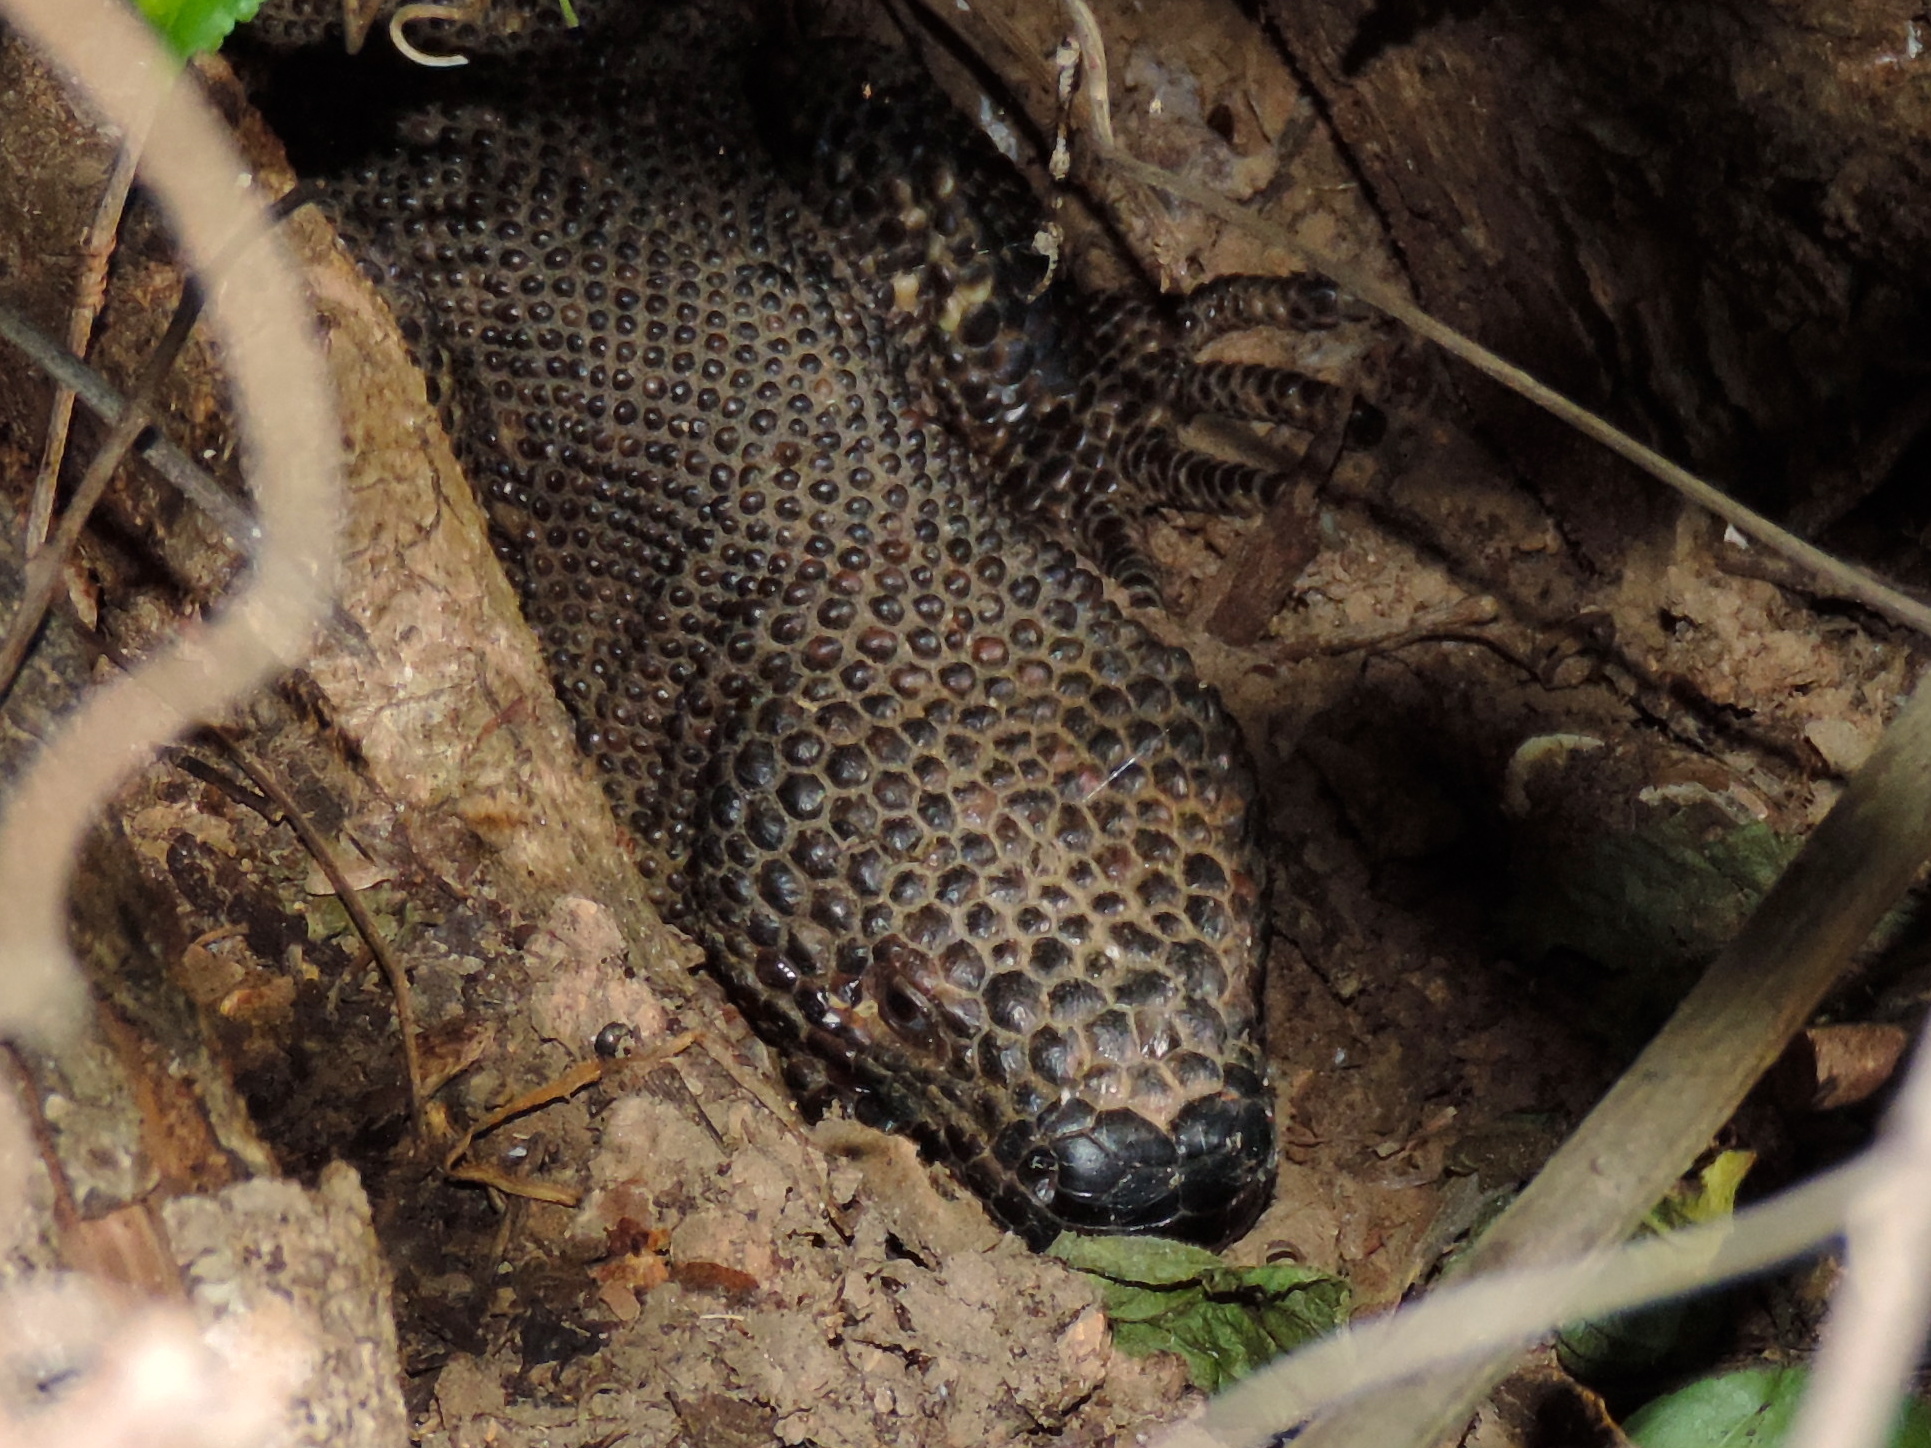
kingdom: Animalia
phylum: Chordata
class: Squamata
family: Helodermatidae
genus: Heloderma
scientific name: Heloderma horridum
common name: Mexican beaded lizard
